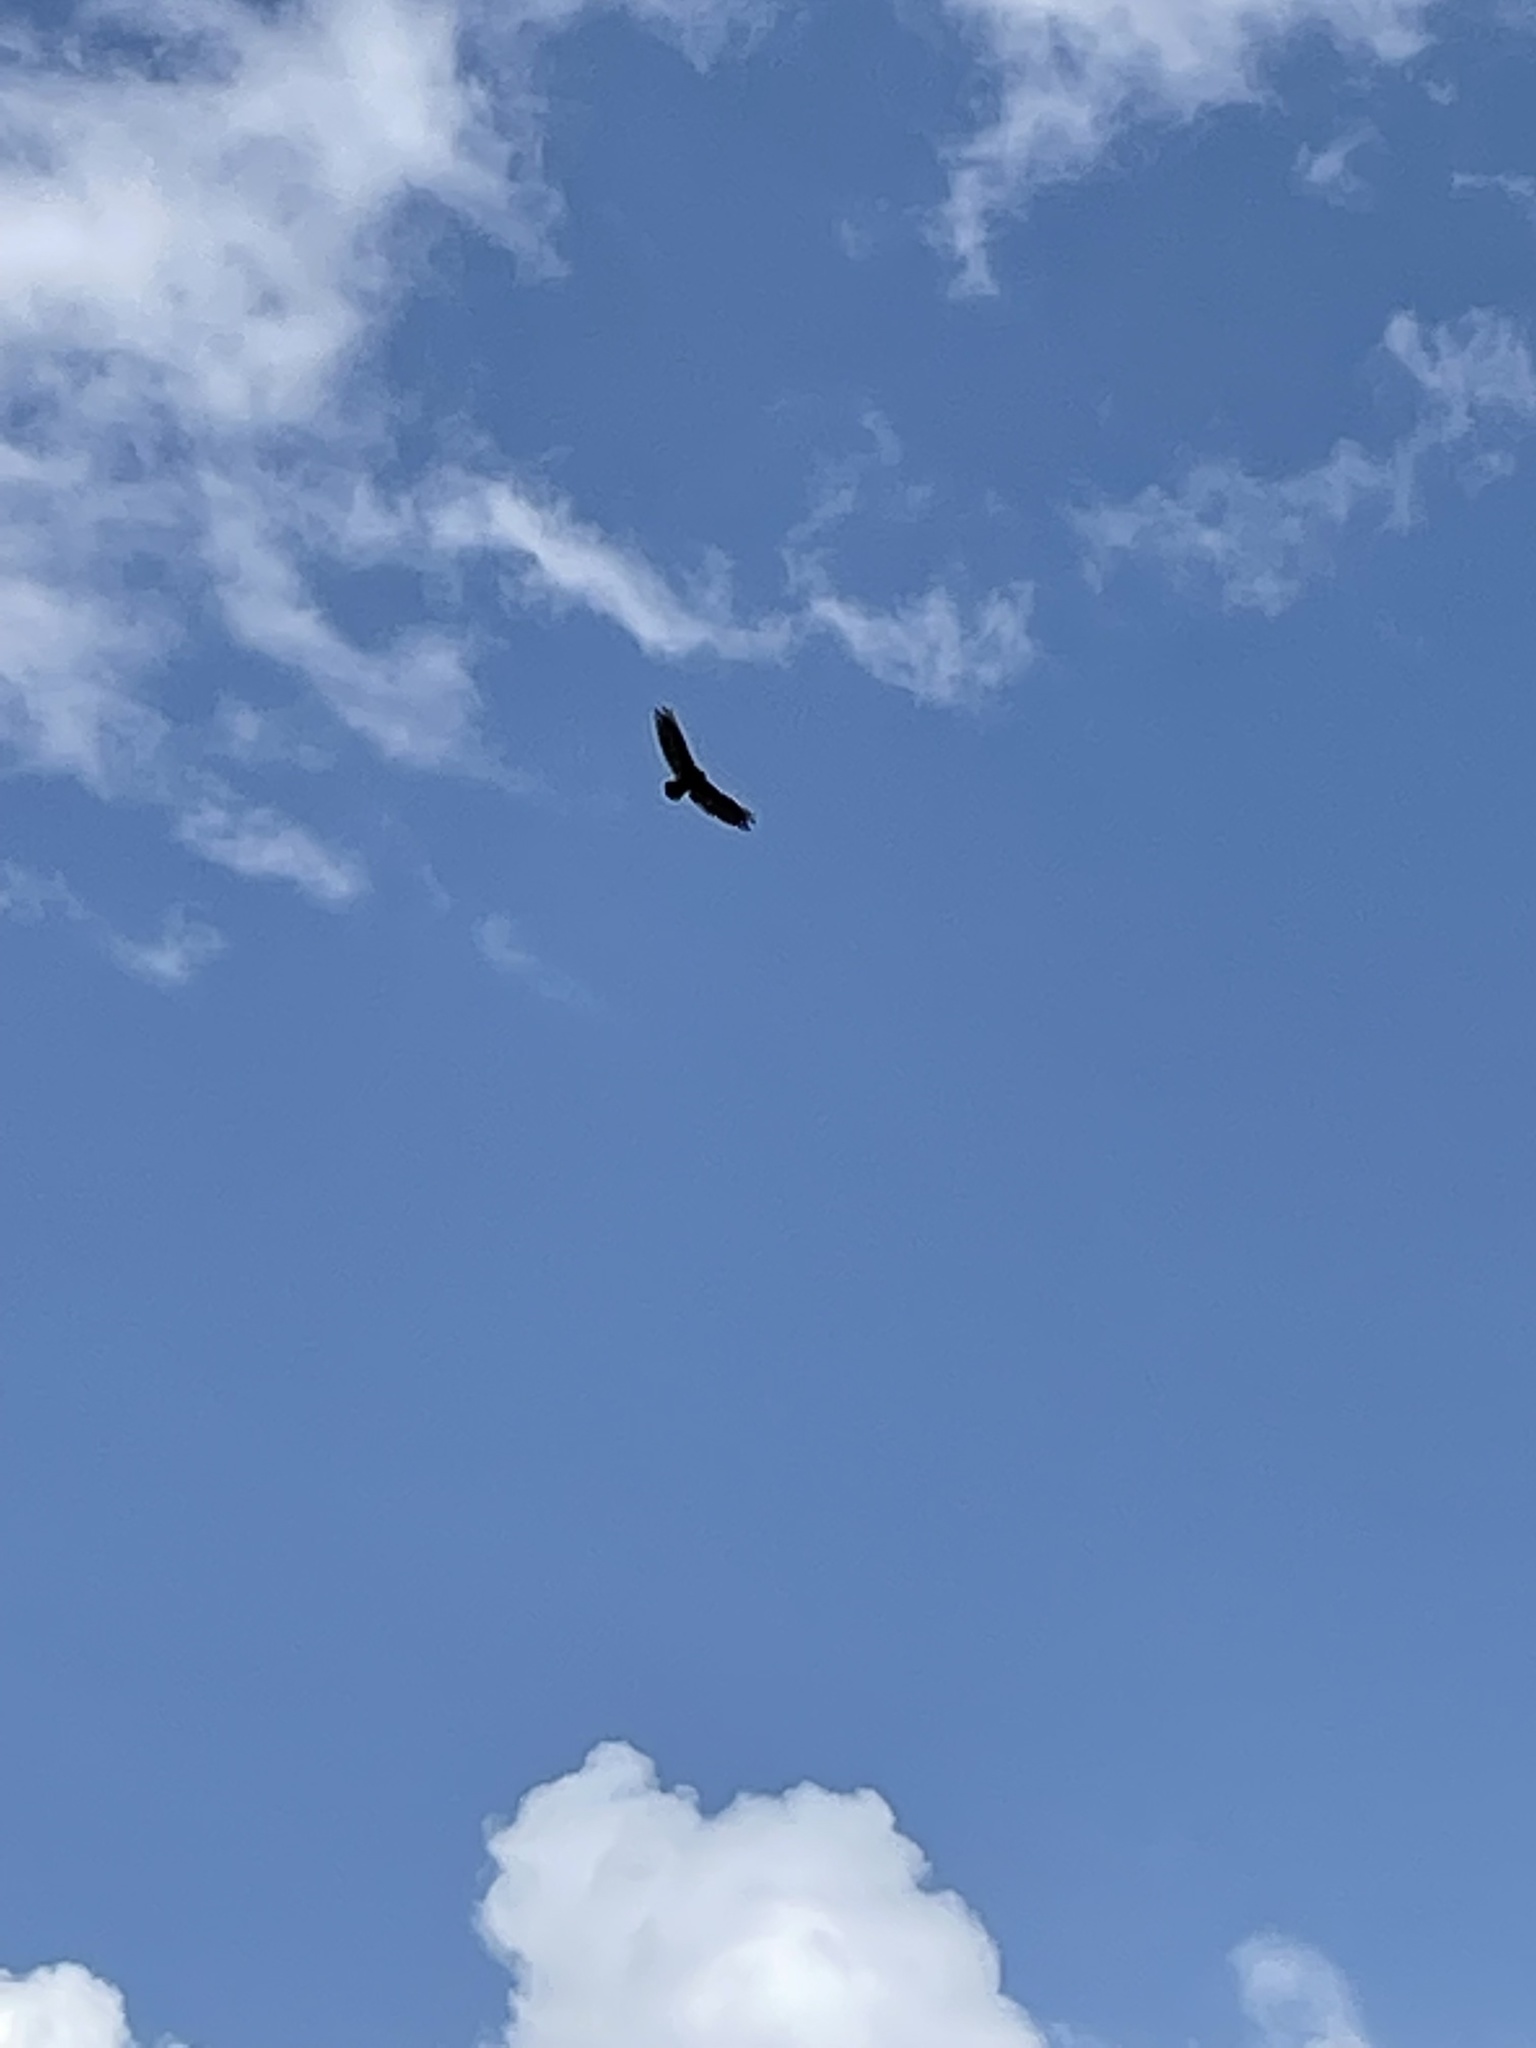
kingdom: Animalia
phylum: Chordata
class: Aves
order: Accipitriformes
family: Cathartidae
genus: Cathartes
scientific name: Cathartes aura
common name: Turkey vulture
